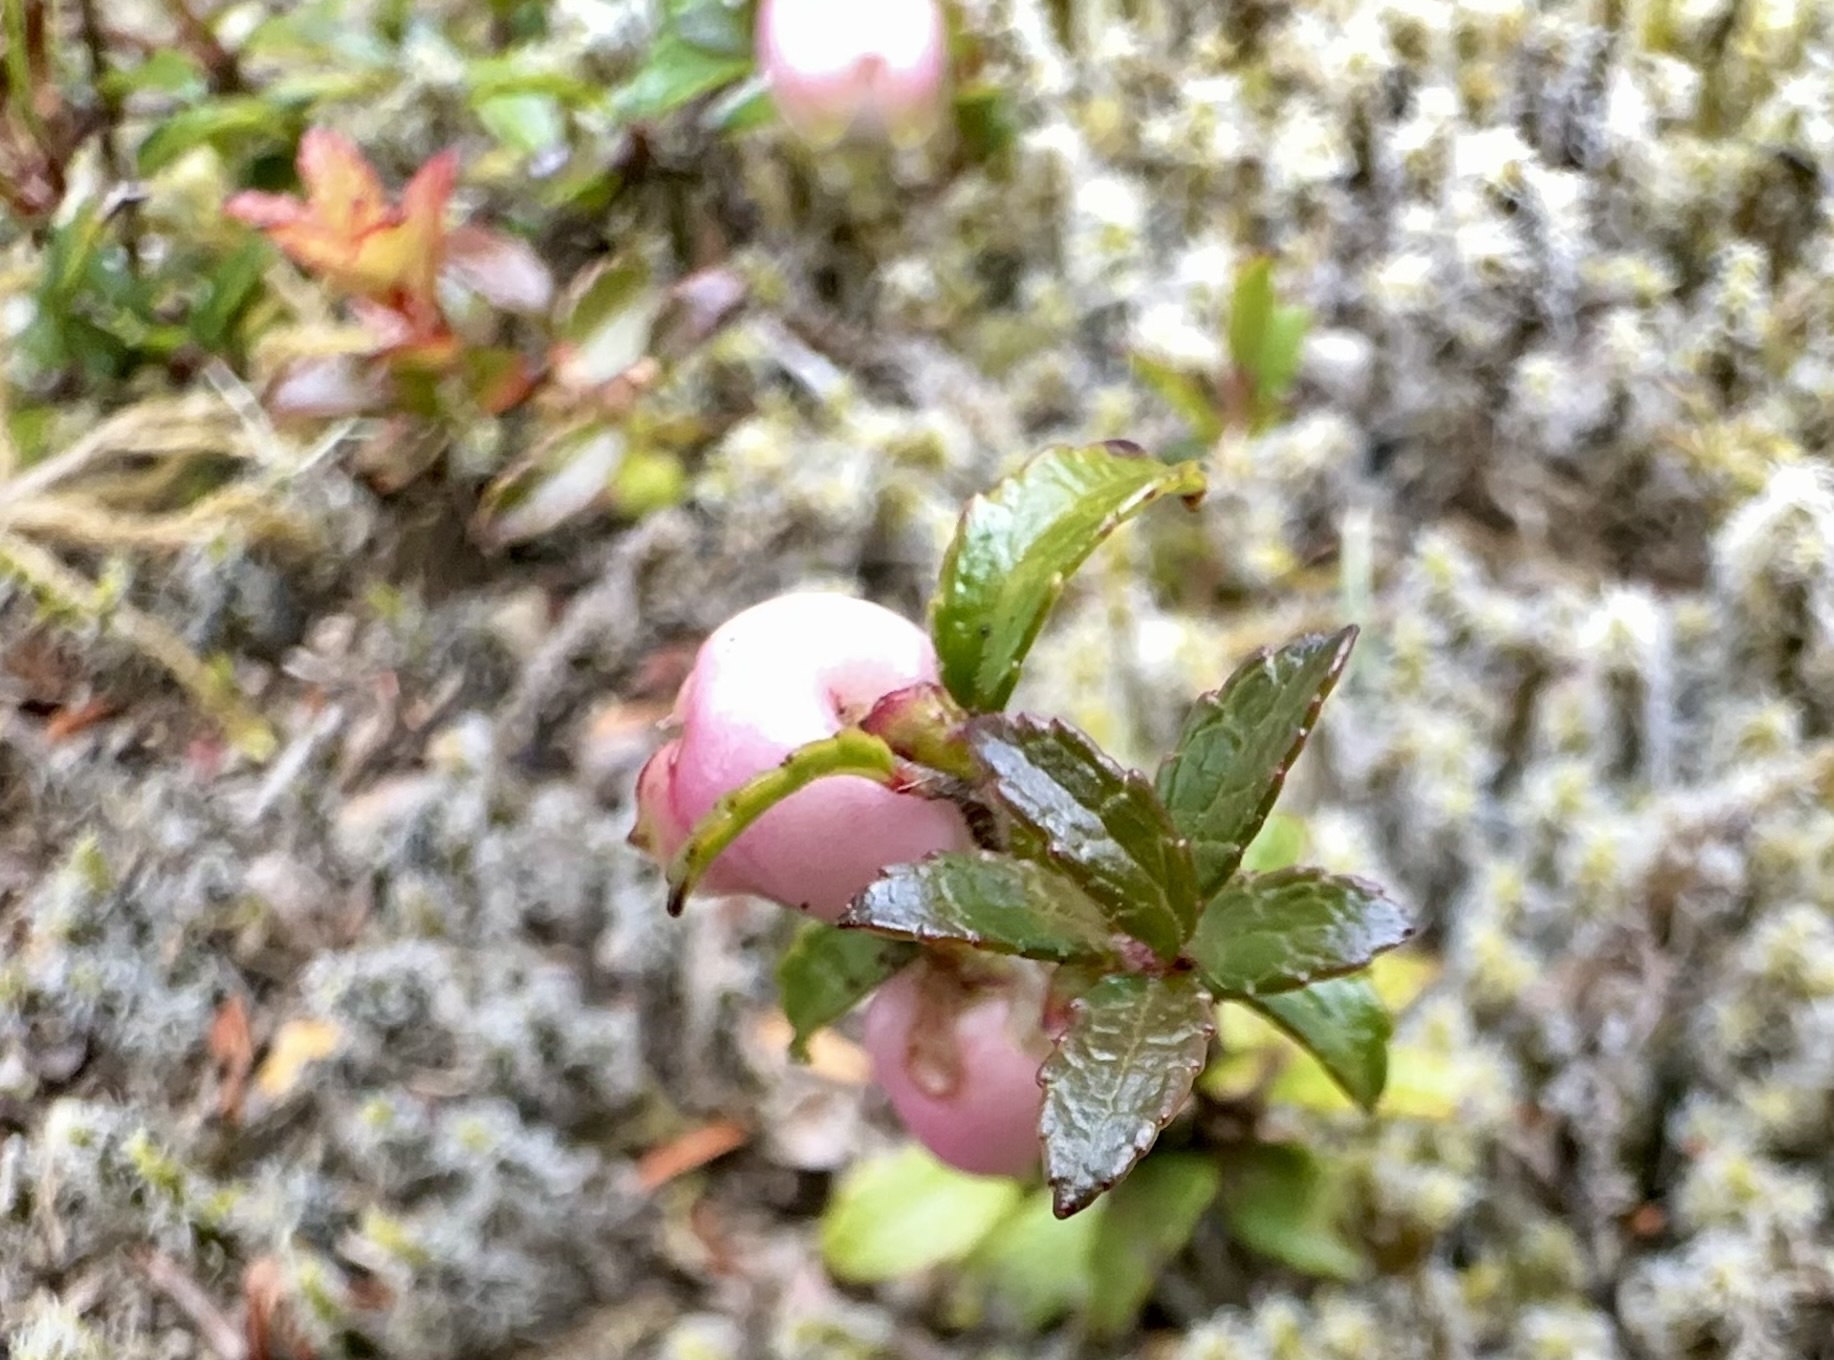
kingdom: Plantae
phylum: Tracheophyta
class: Magnoliopsida
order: Ericales
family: Ericaceae
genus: Gaultheria
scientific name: Gaultheria
